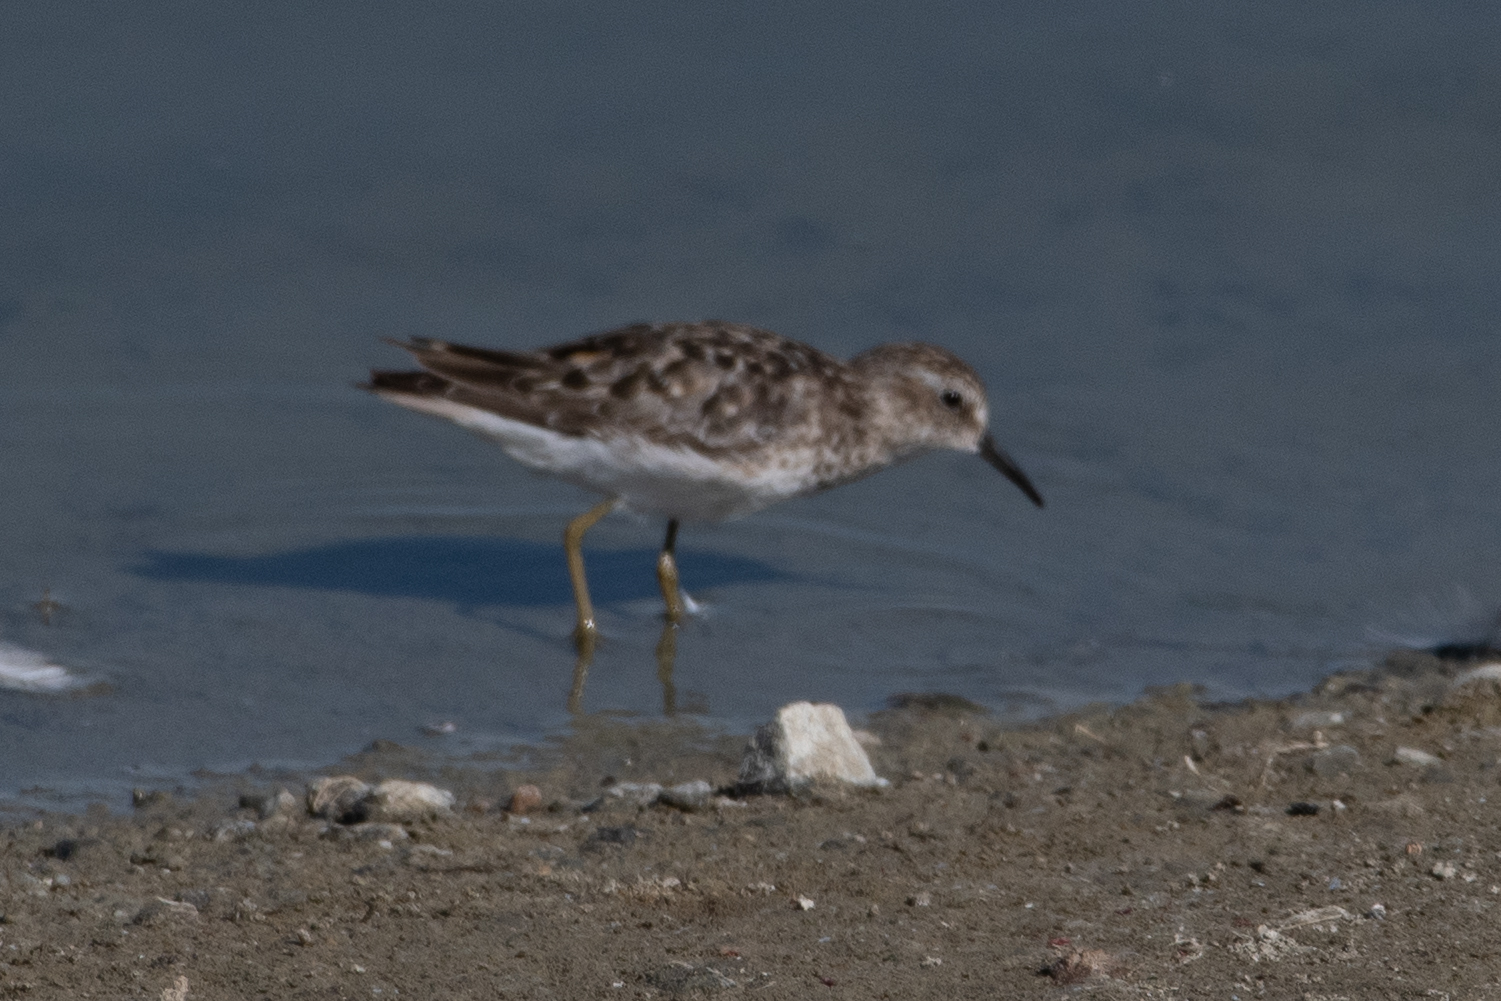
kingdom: Animalia
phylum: Chordata
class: Aves
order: Charadriiformes
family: Scolopacidae
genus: Calidris
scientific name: Calidris minutilla
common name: Least sandpiper
